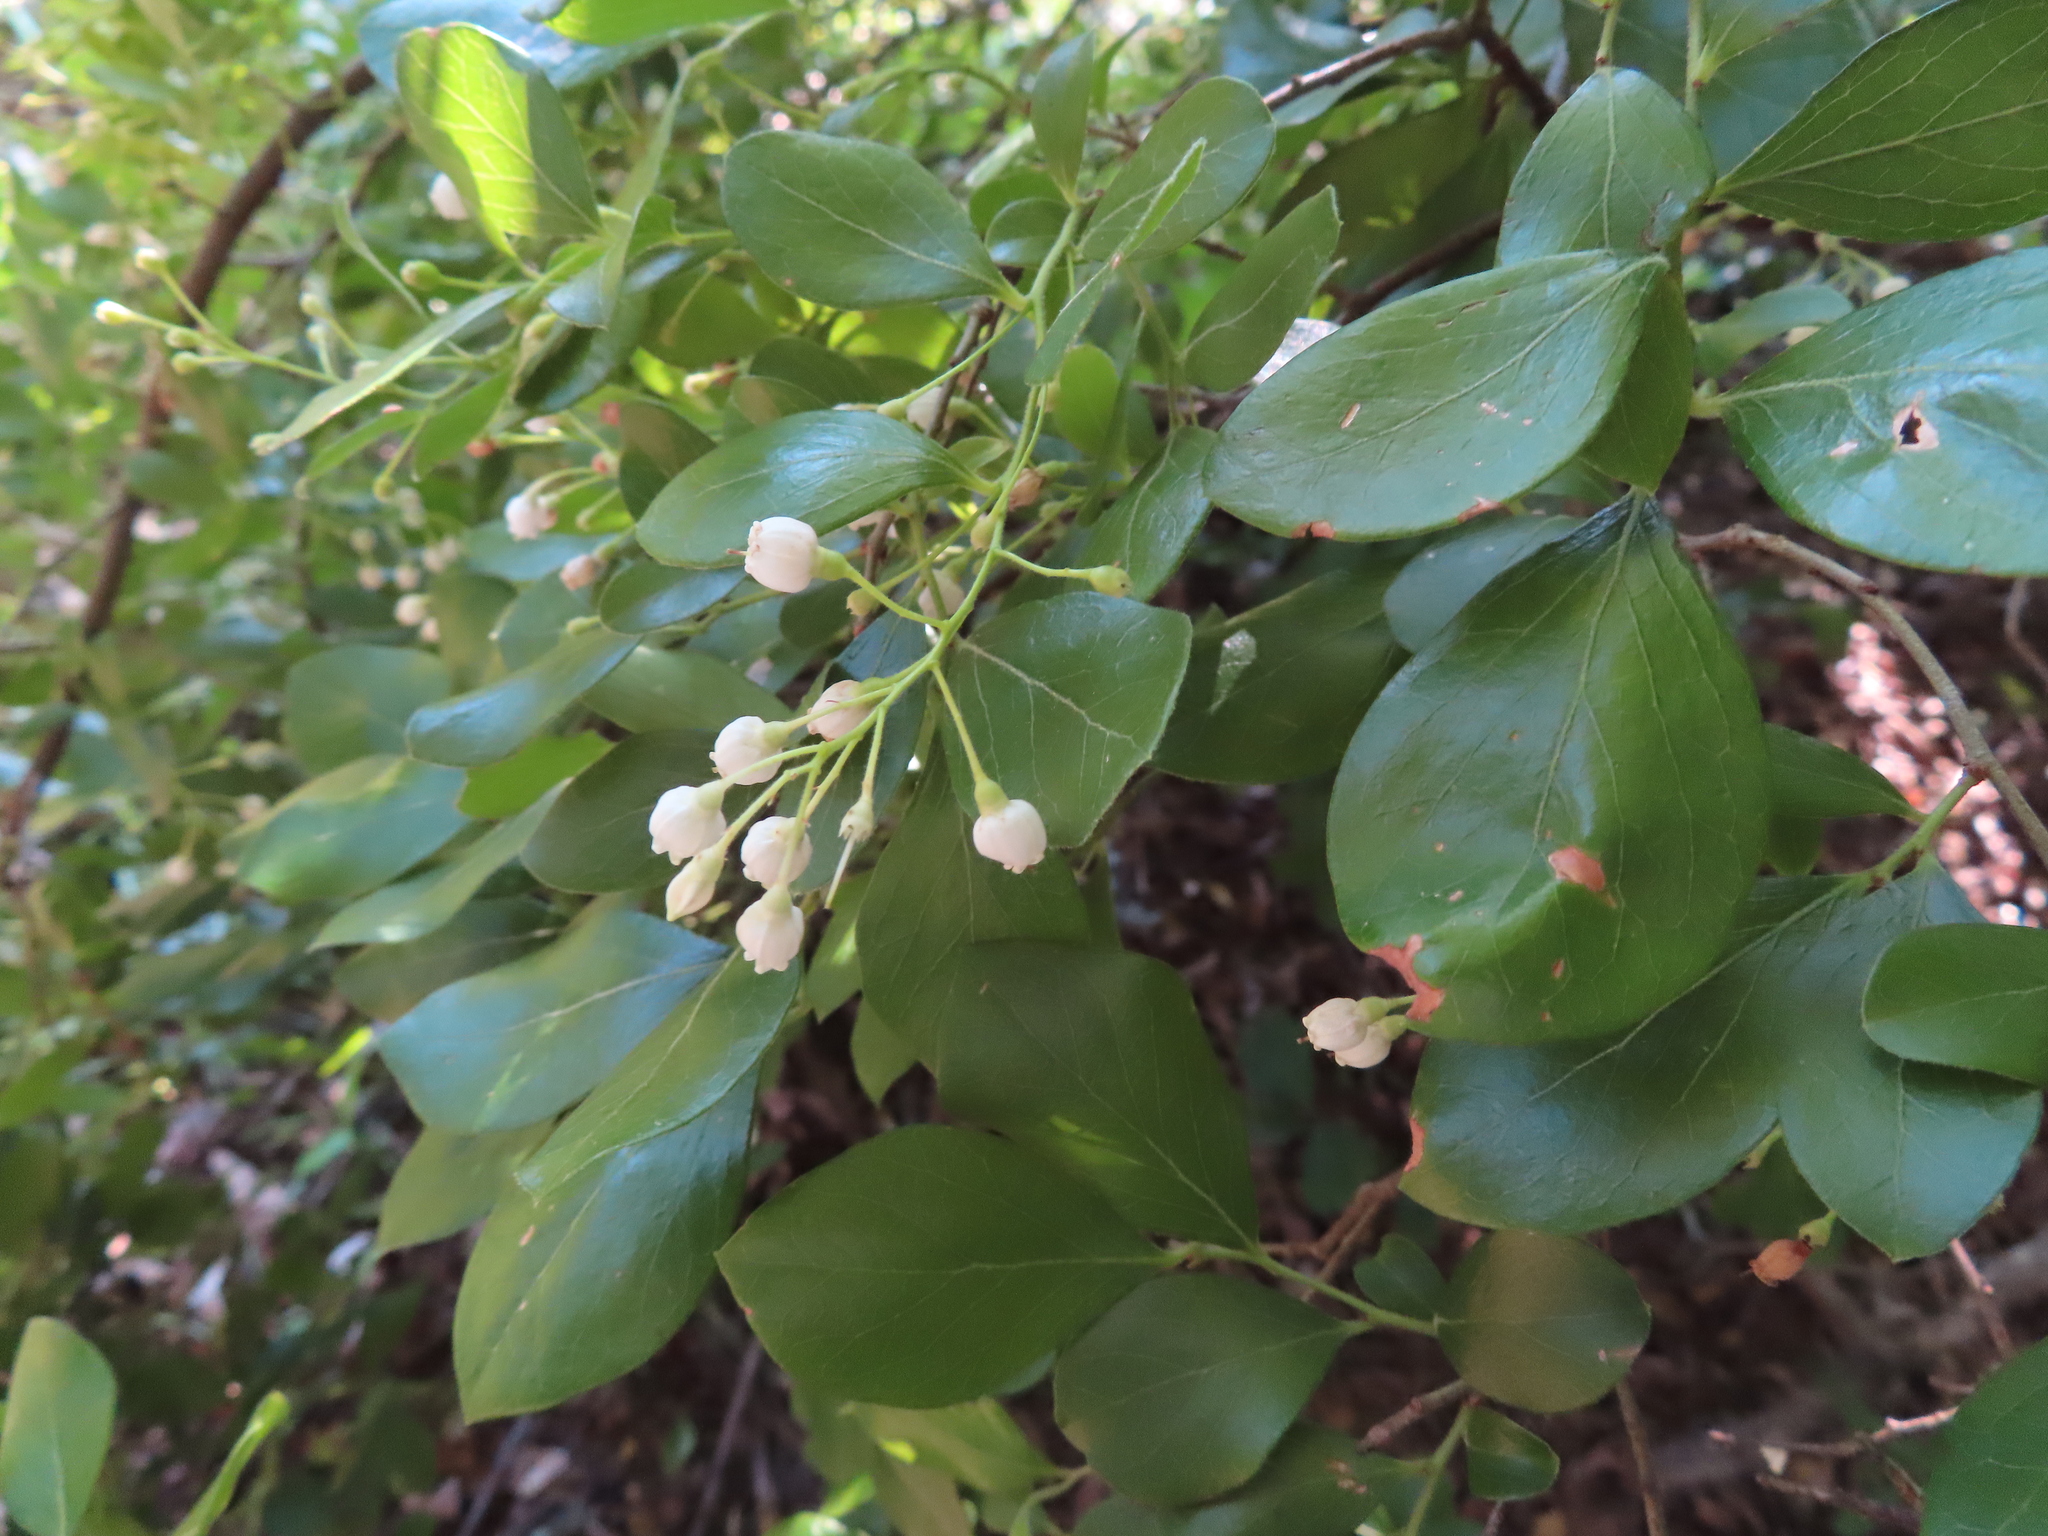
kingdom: Plantae
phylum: Tracheophyta
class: Magnoliopsida
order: Ericales
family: Ericaceae
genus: Vaccinium
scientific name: Vaccinium arboreum
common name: Farkleberry
